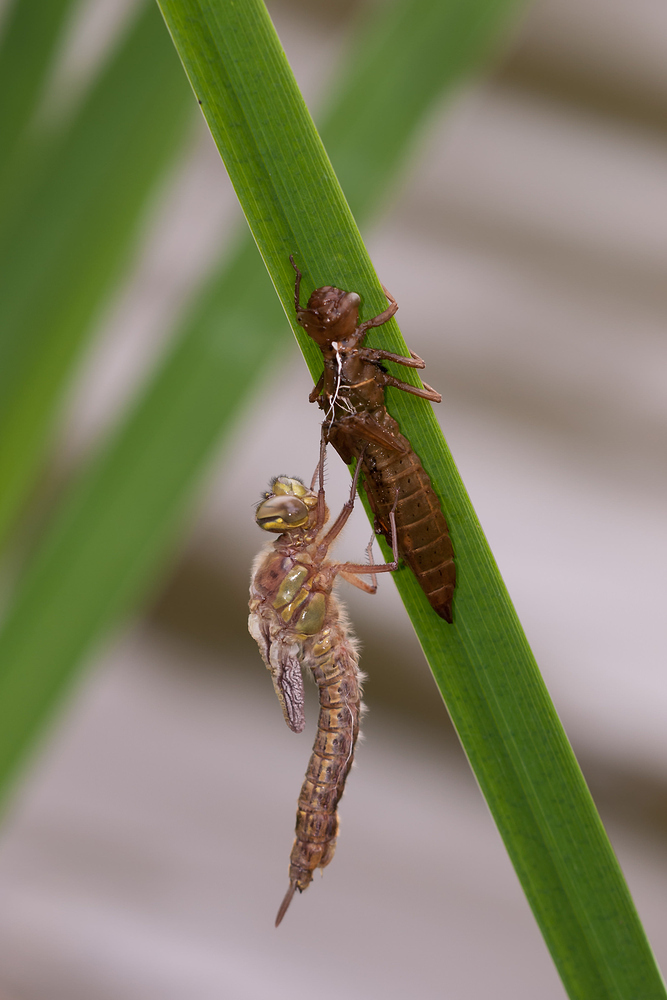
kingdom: Animalia
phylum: Arthropoda
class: Insecta
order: Odonata
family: Aeshnidae
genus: Brachytron
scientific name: Brachytron pratense
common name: Hairy hawker
